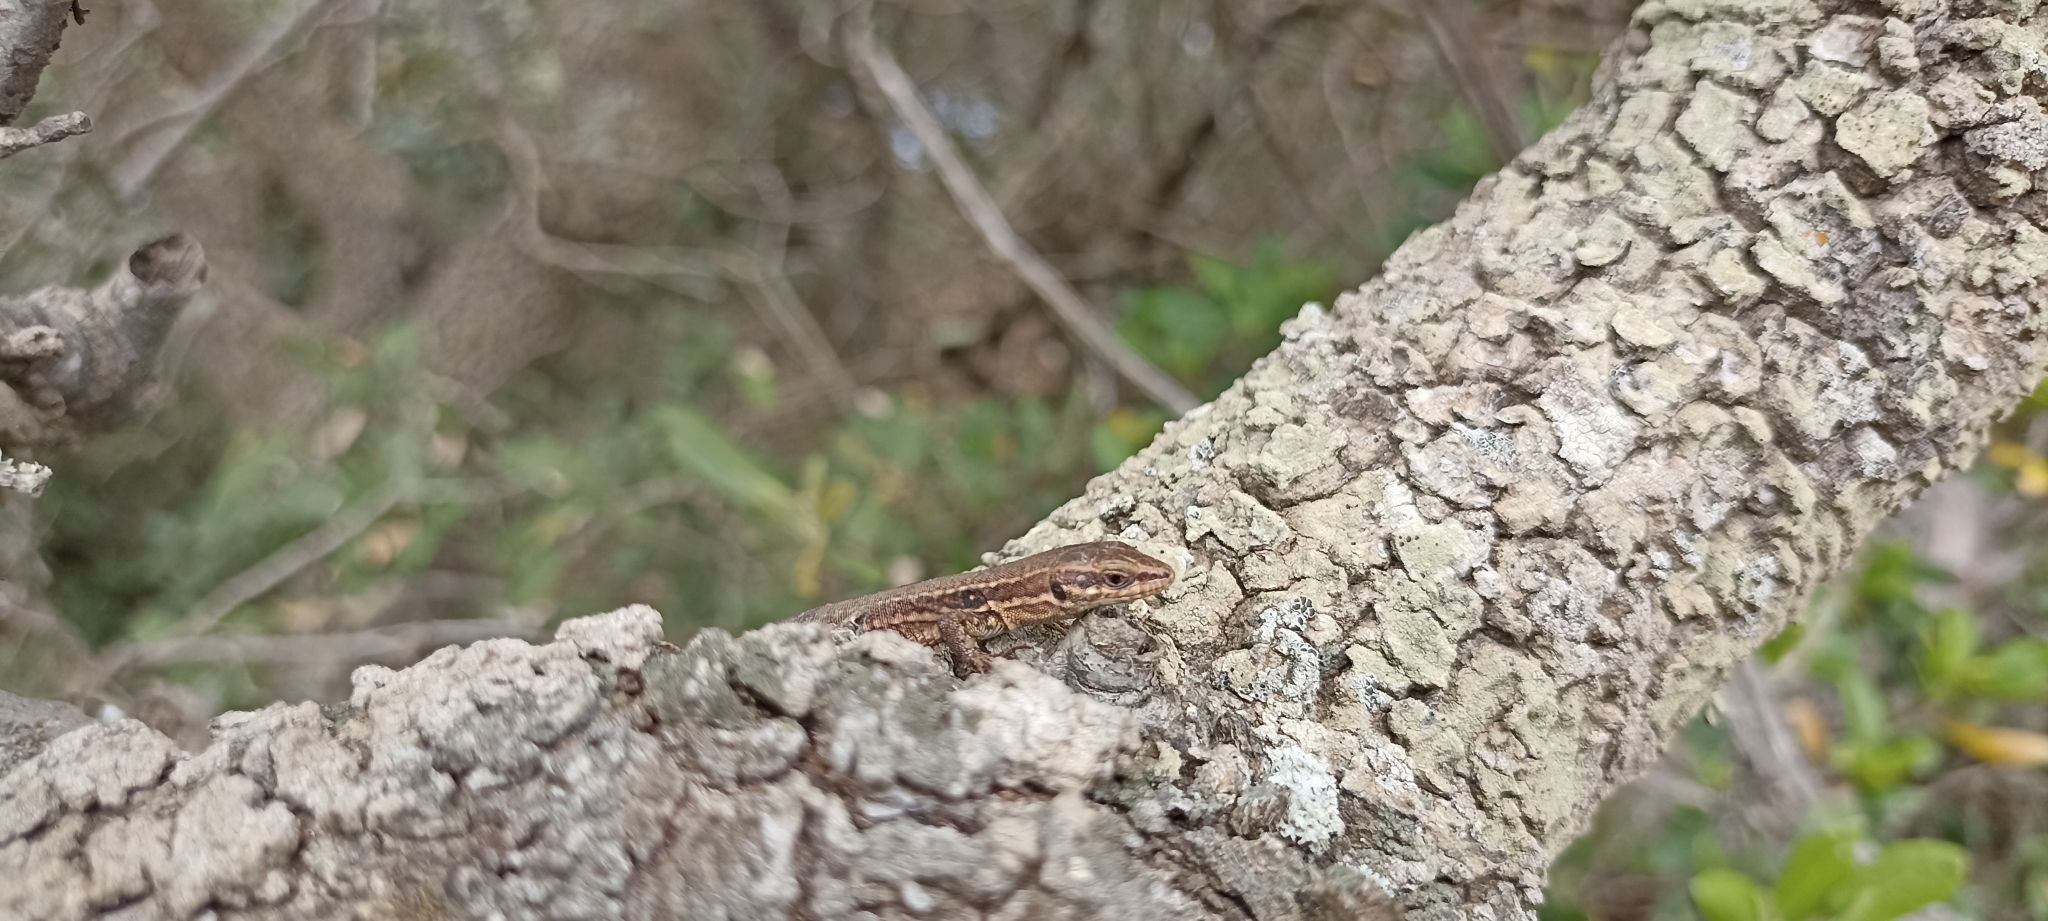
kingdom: Animalia
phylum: Chordata
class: Squamata
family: Lacertidae
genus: Podarcis
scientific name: Podarcis muralis
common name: Common wall lizard
